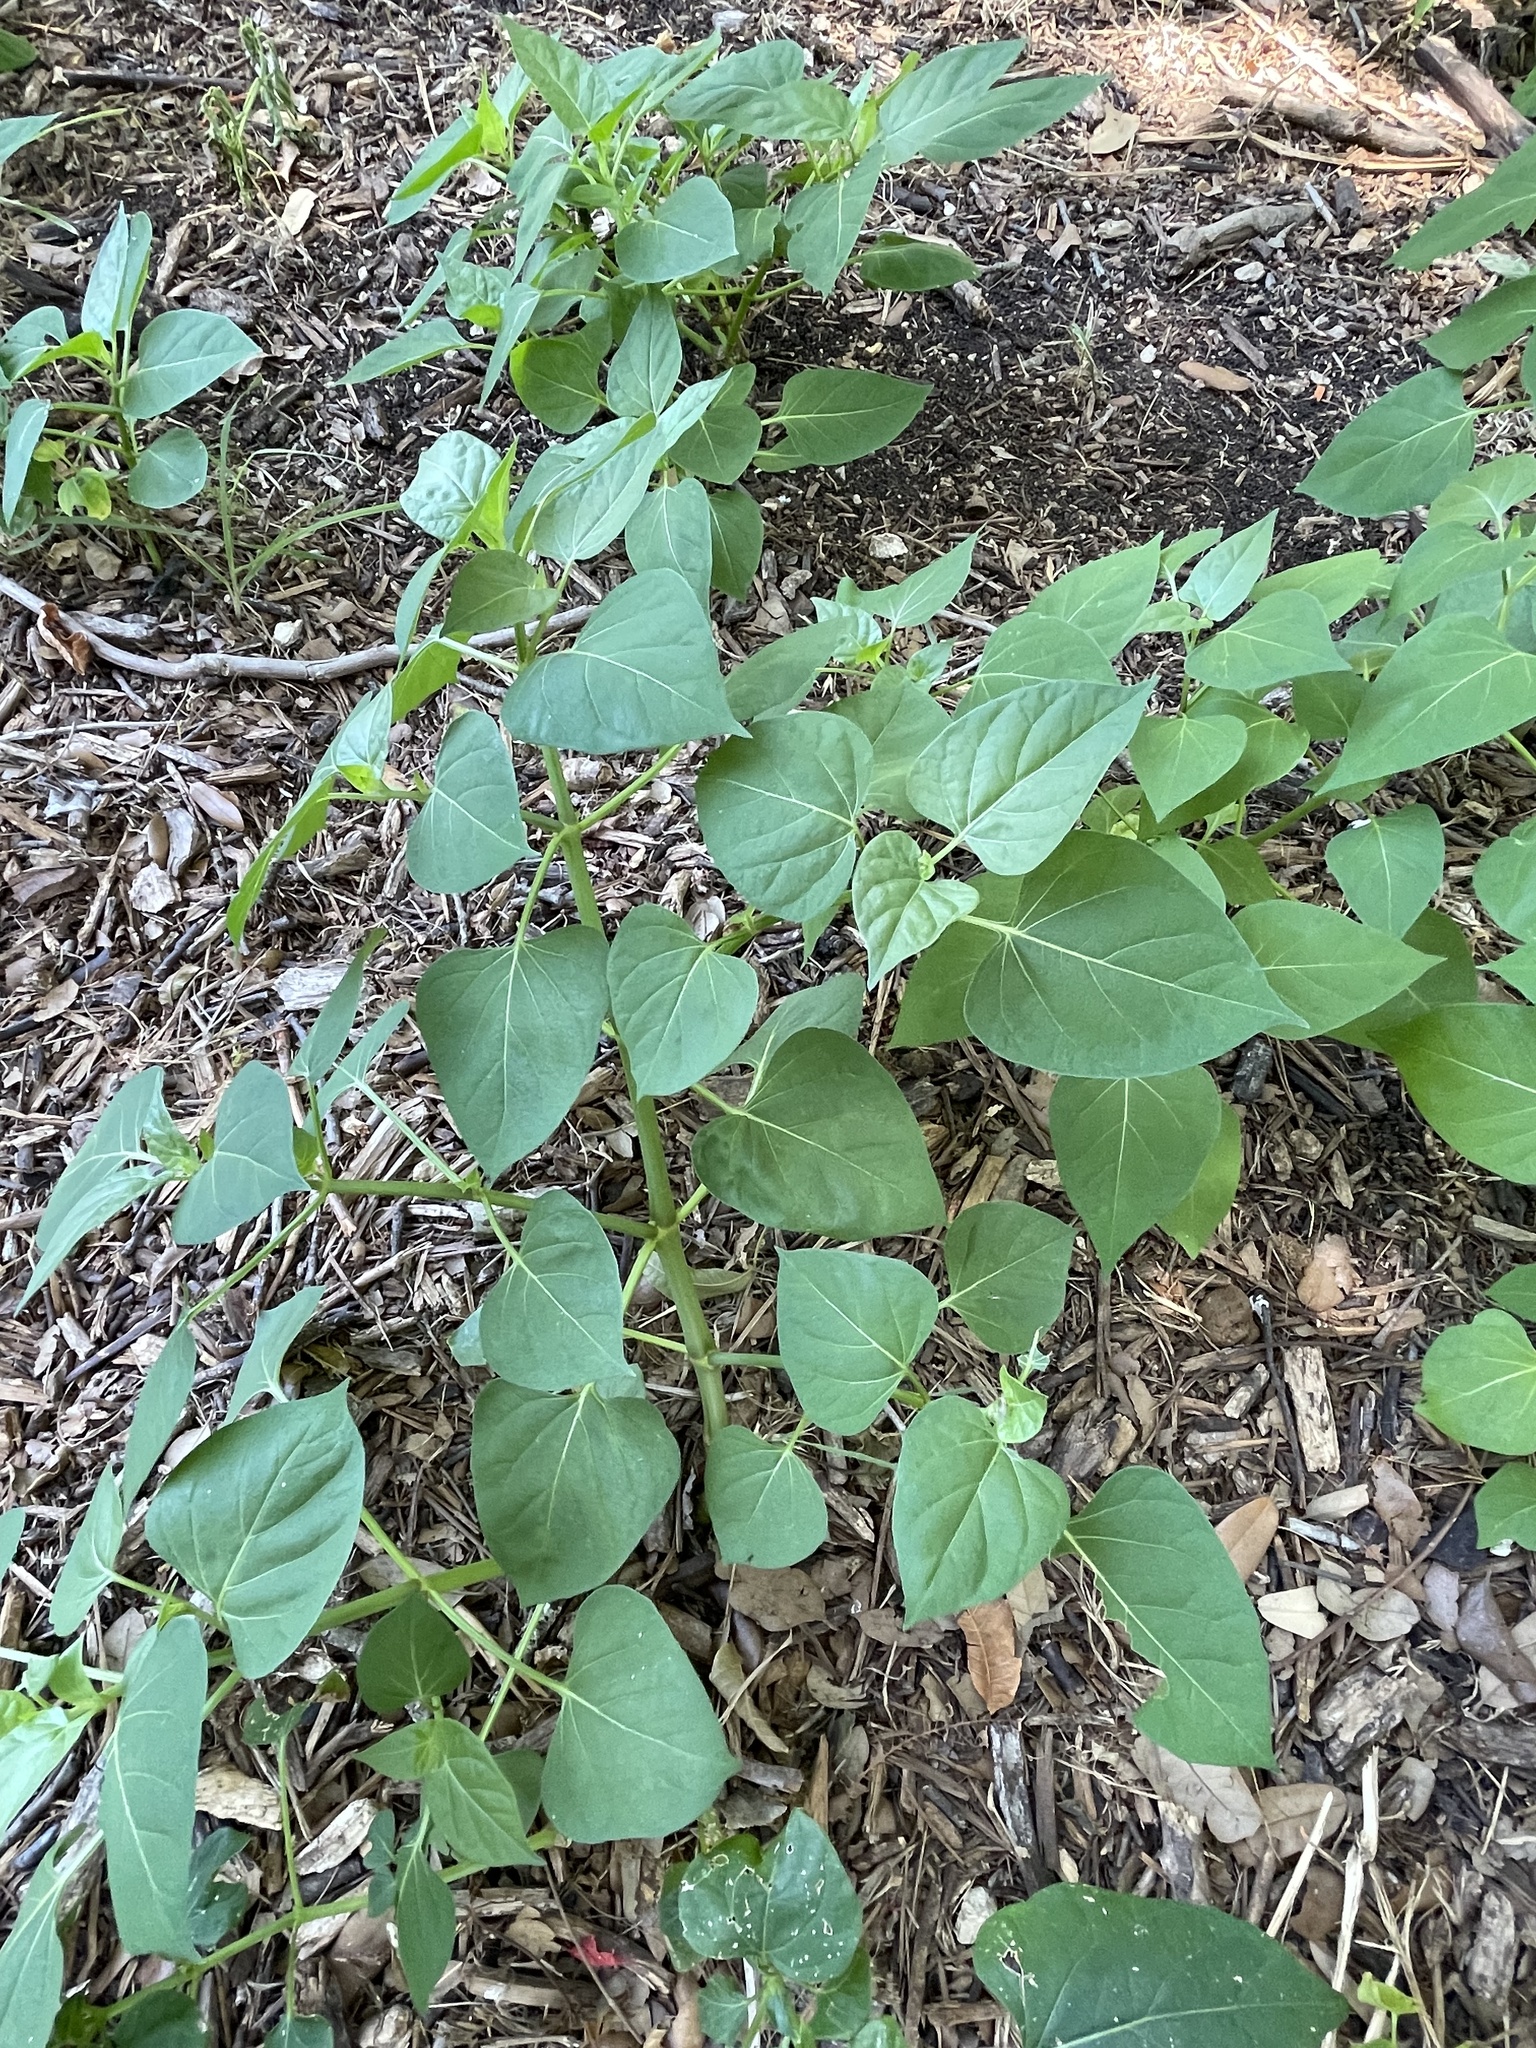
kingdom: Plantae
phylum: Tracheophyta
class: Magnoliopsida
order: Caryophyllales
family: Nyctaginaceae
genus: Mirabilis
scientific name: Mirabilis jalapa
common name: Marvel-of-peru
